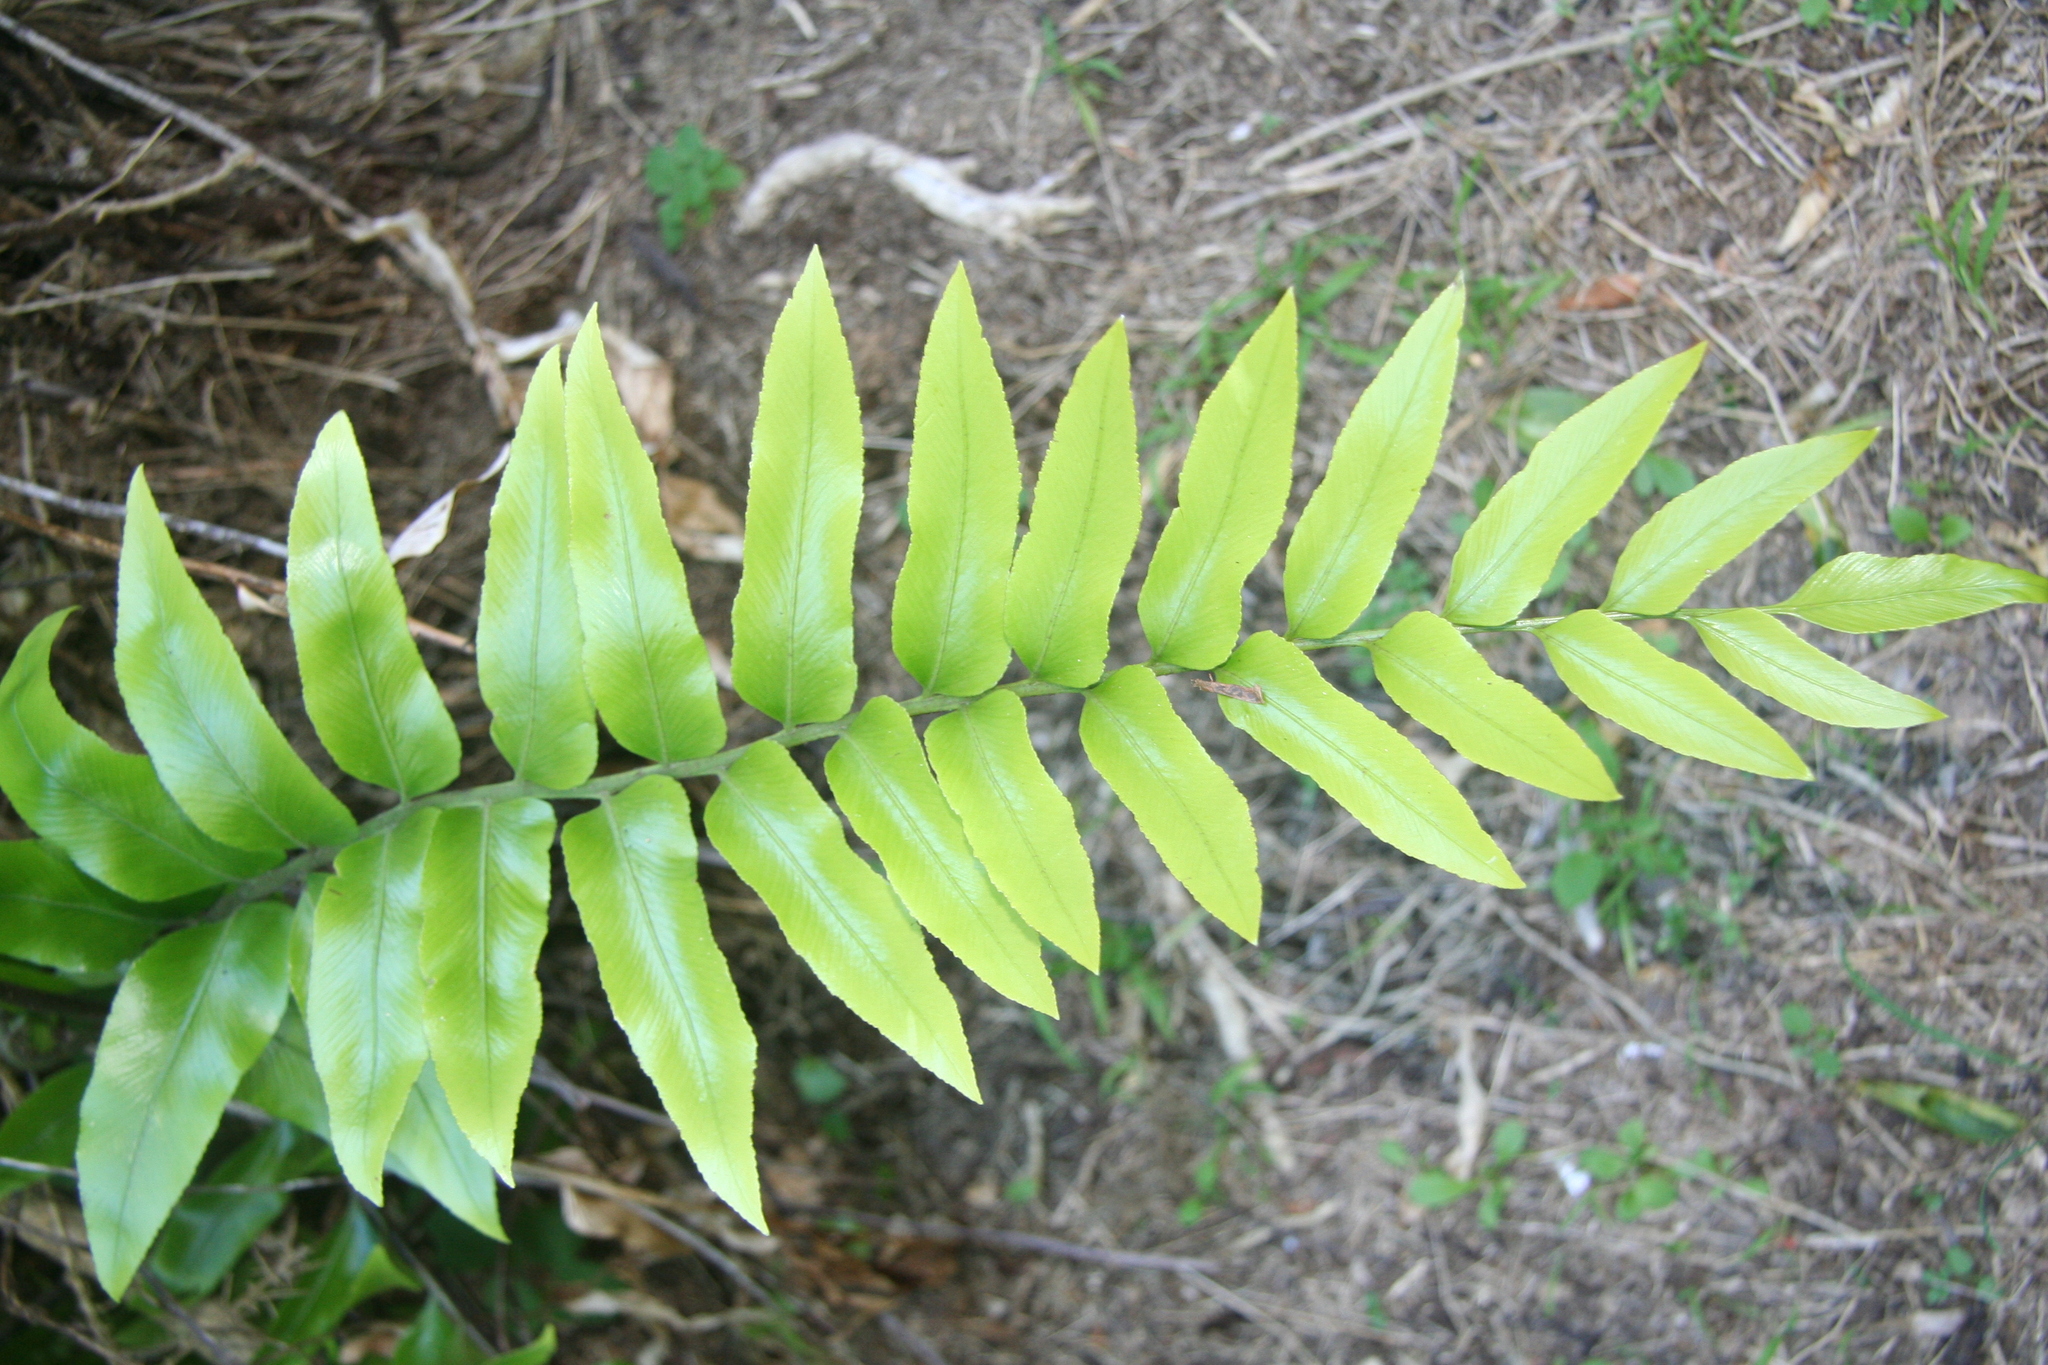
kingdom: Plantae
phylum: Tracheophyta
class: Polypodiopsida
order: Polypodiales
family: Aspleniaceae
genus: Asplenium
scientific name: Asplenium oblongifolium
